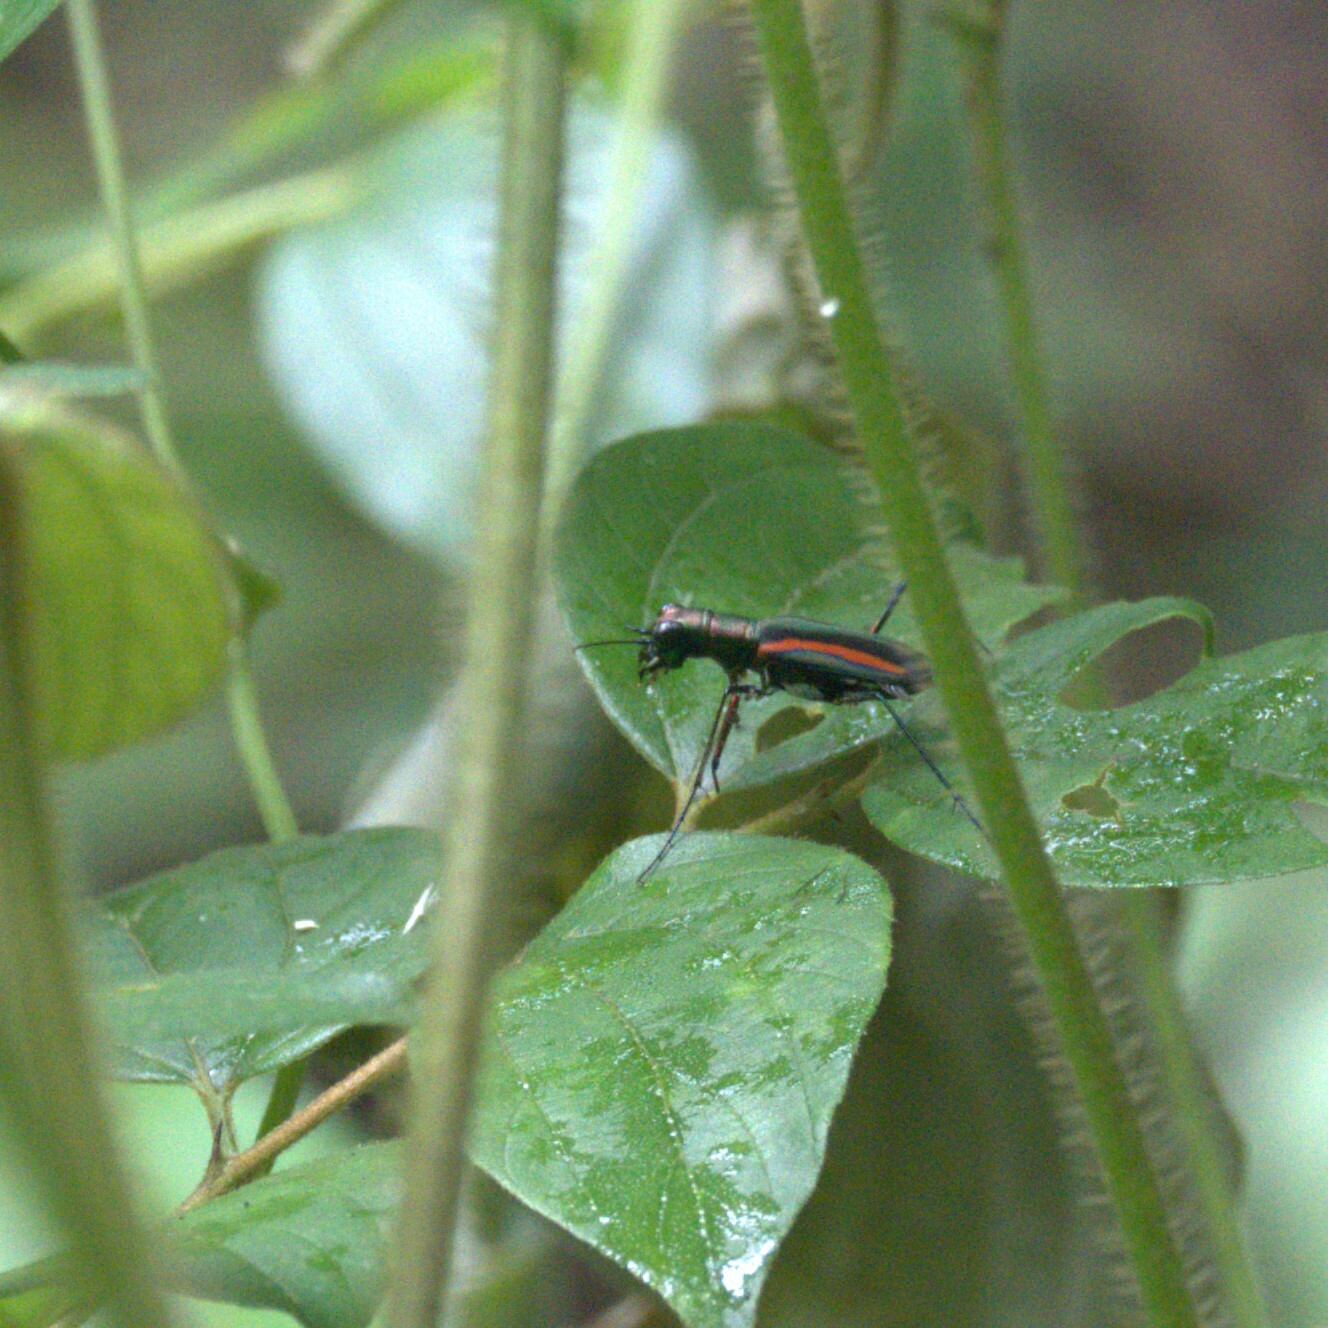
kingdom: Animalia
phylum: Arthropoda
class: Insecta
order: Coleoptera
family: Carabidae
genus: Cicindela
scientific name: Cicindela hamiltoniana
